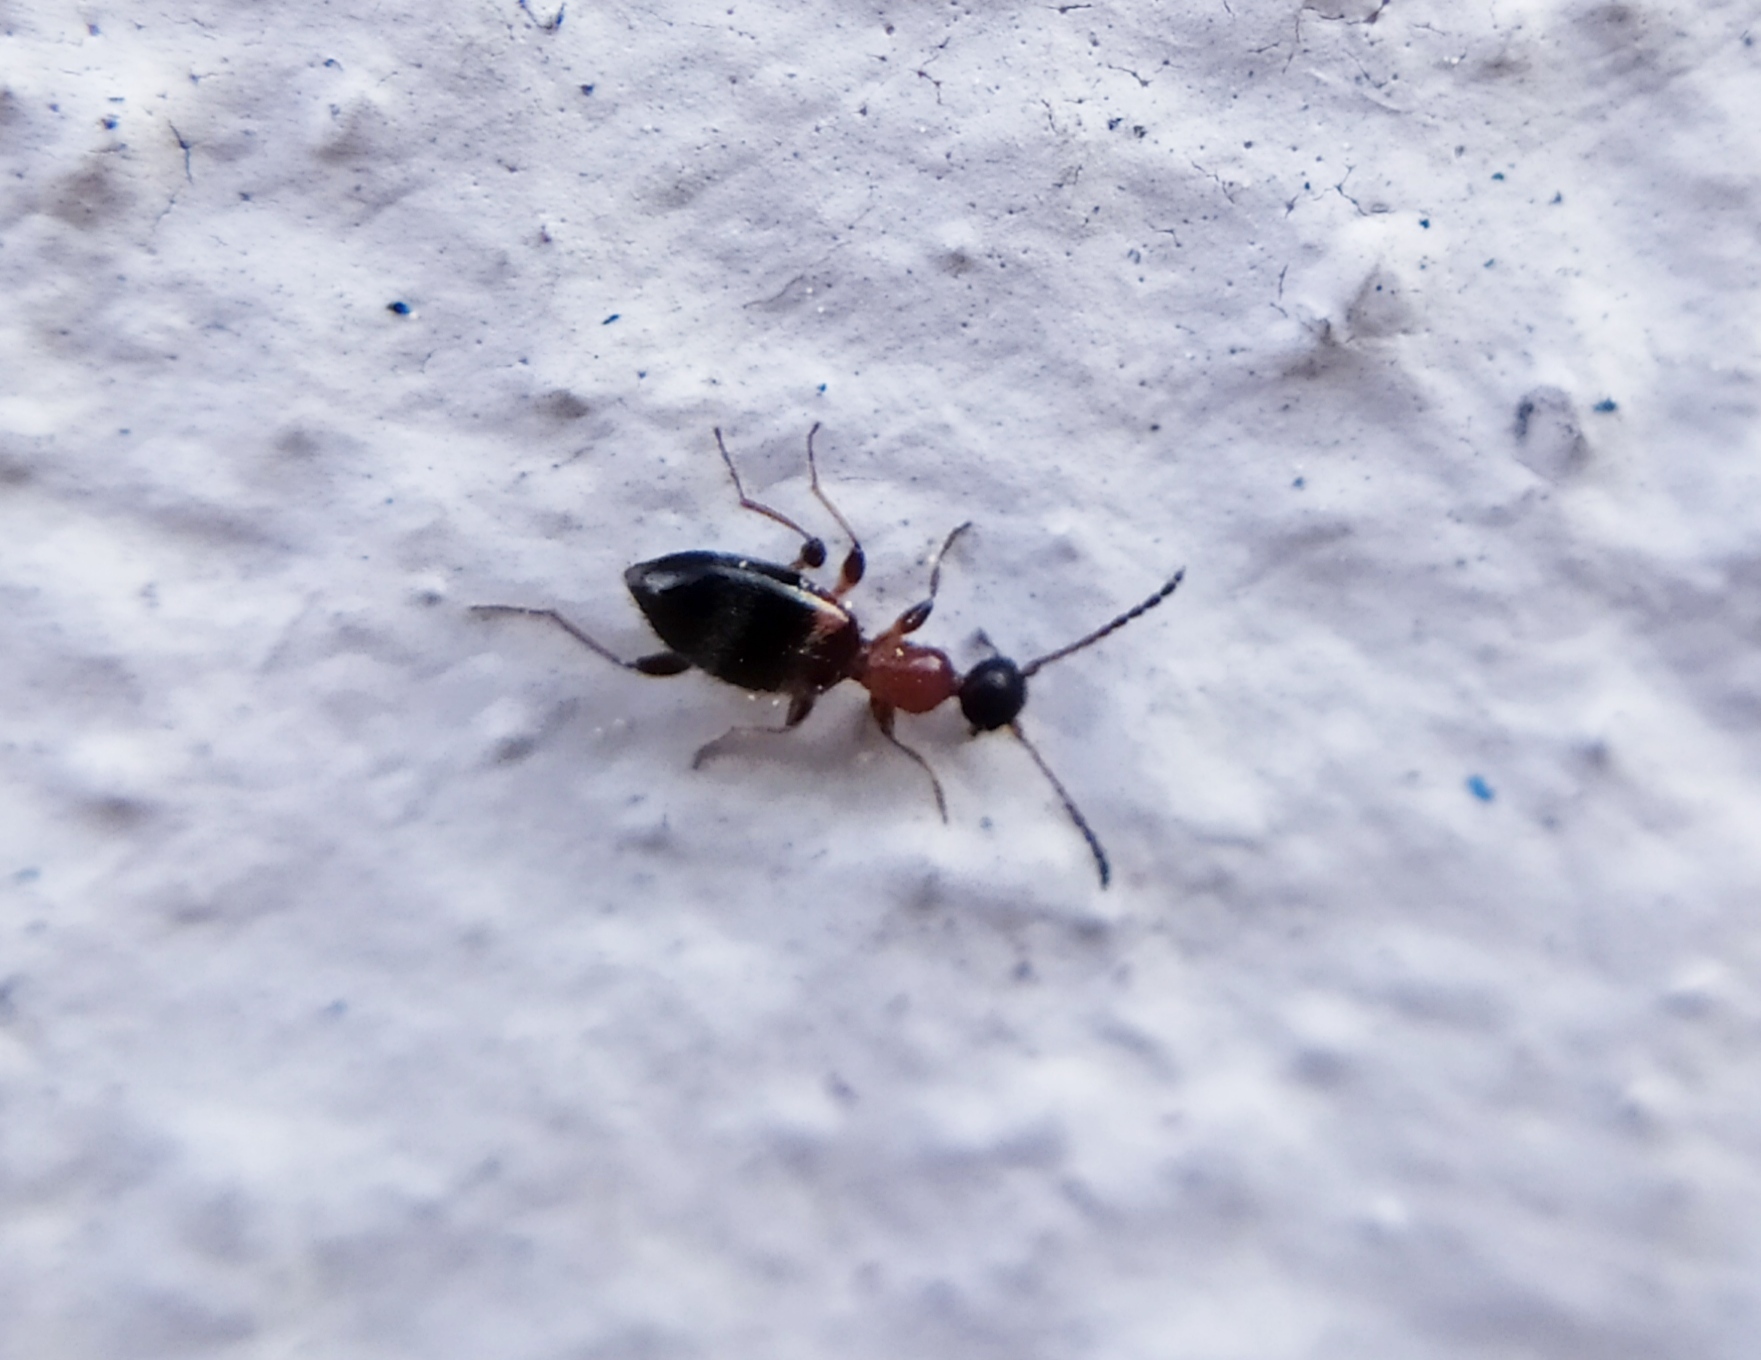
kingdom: Animalia
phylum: Arthropoda
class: Insecta
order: Coleoptera
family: Anthicidae
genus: Anthelephila
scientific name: Anthelephila pedestris
